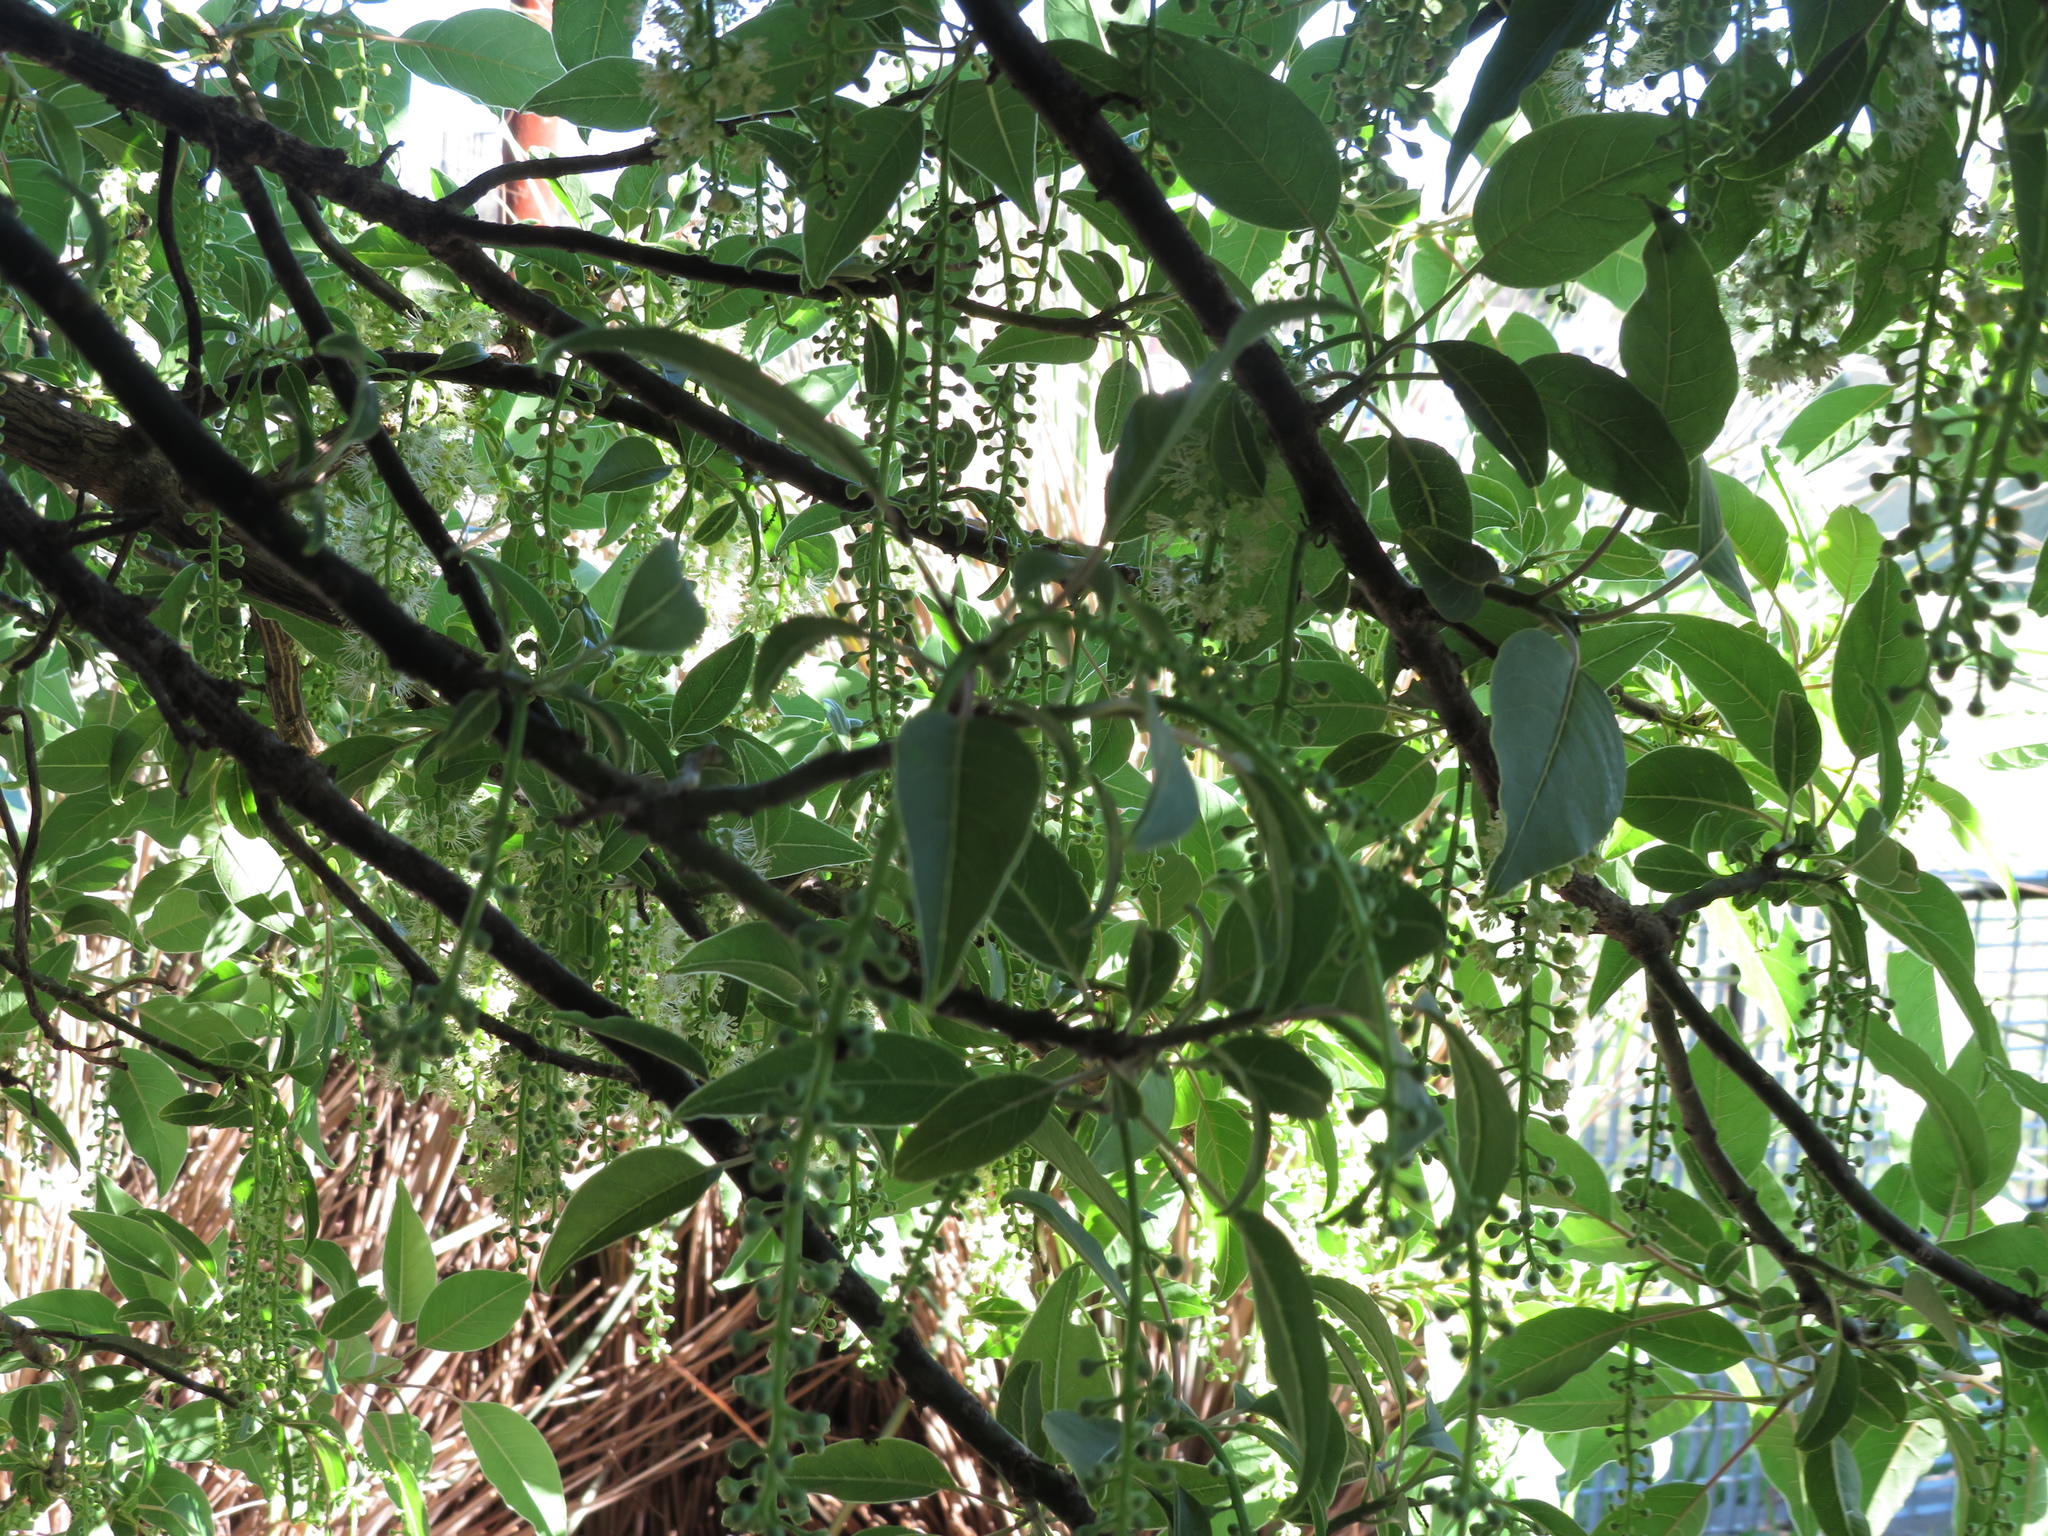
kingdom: Plantae
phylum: Tracheophyta
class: Magnoliopsida
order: Caryophyllales
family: Phytolaccaceae
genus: Phytolacca
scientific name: Phytolacca dioica
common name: Pokeweed
